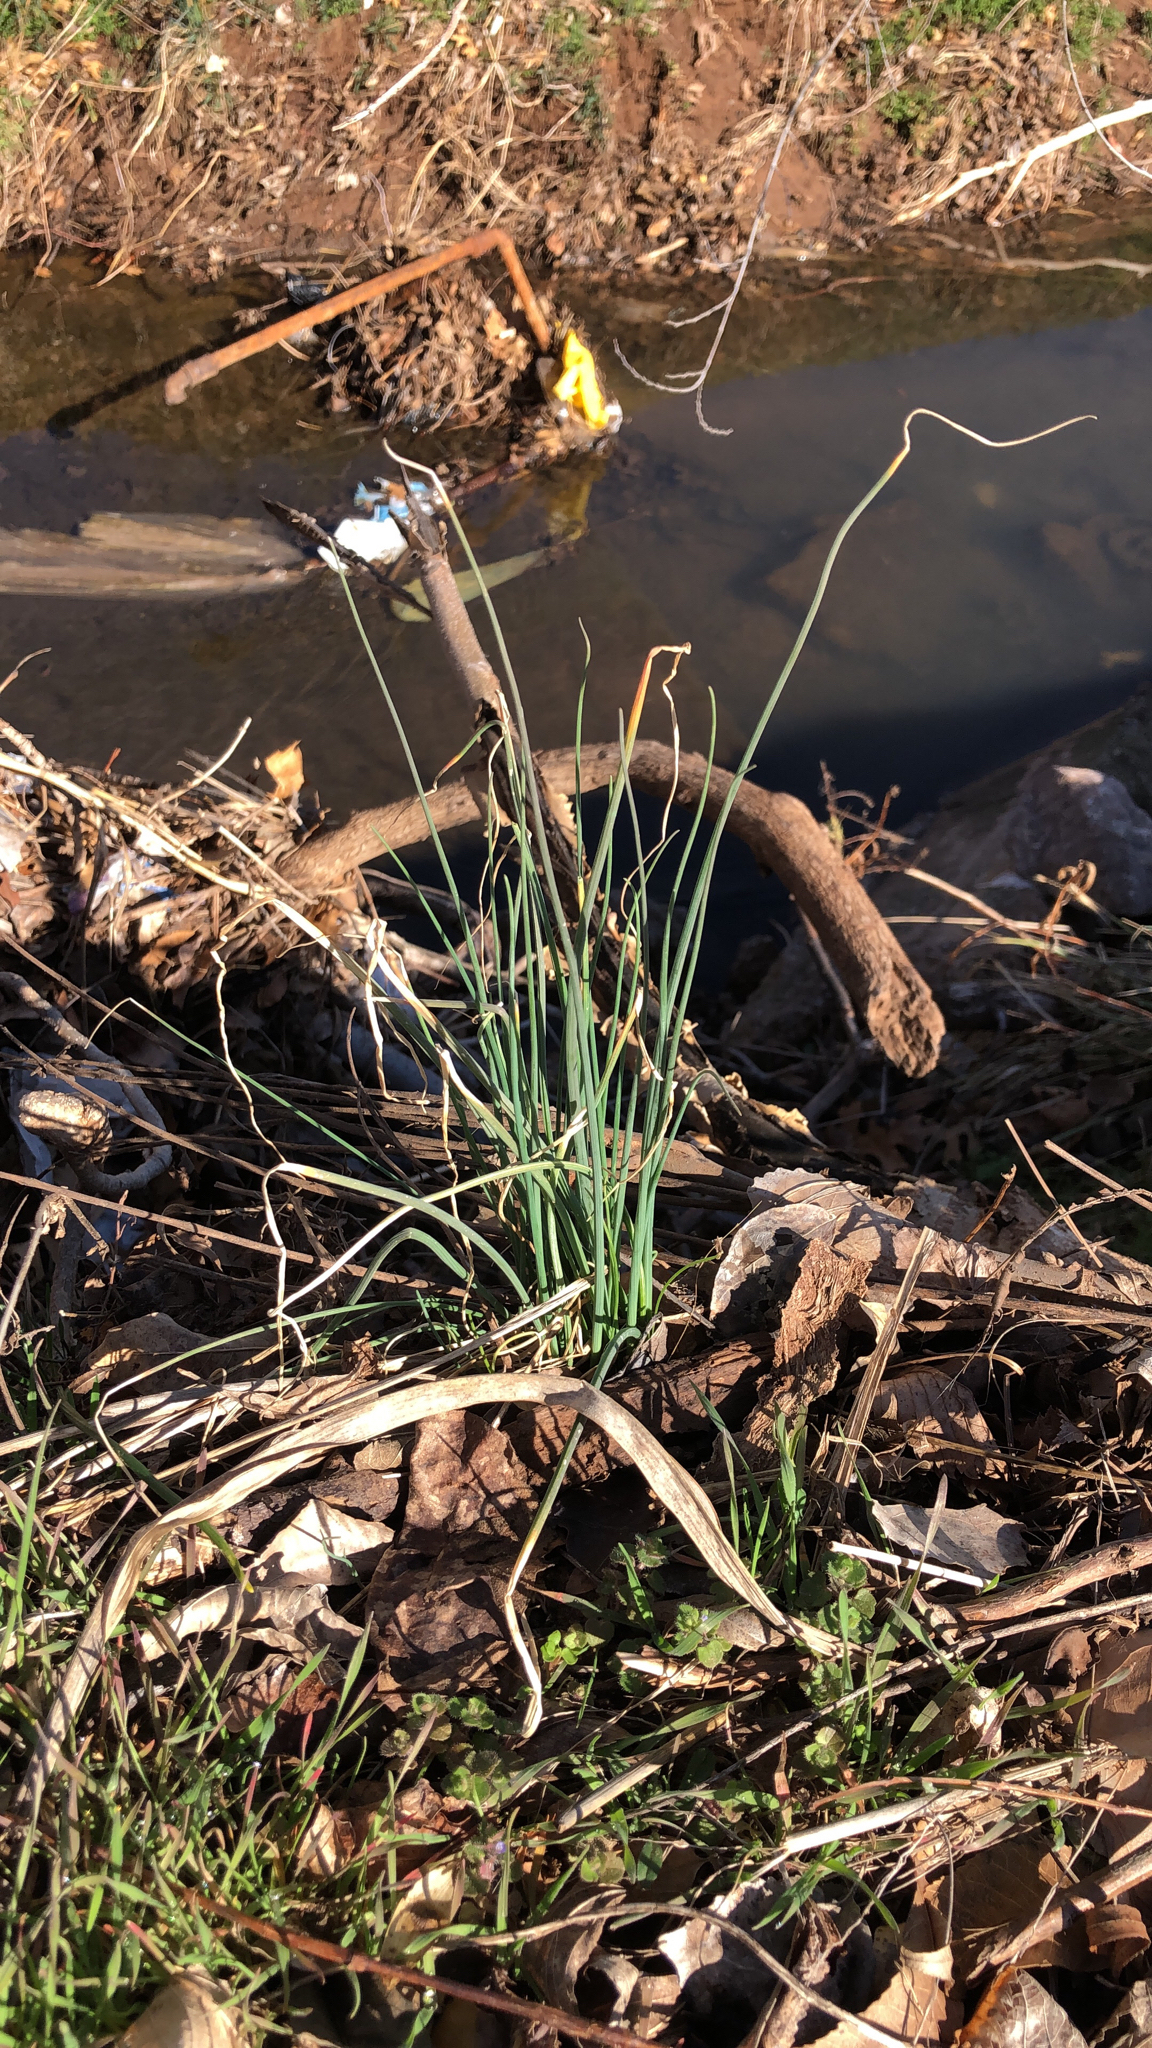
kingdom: Plantae
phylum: Tracheophyta
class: Liliopsida
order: Asparagales
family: Amaryllidaceae
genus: Allium
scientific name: Allium vineale
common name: Crow garlic
